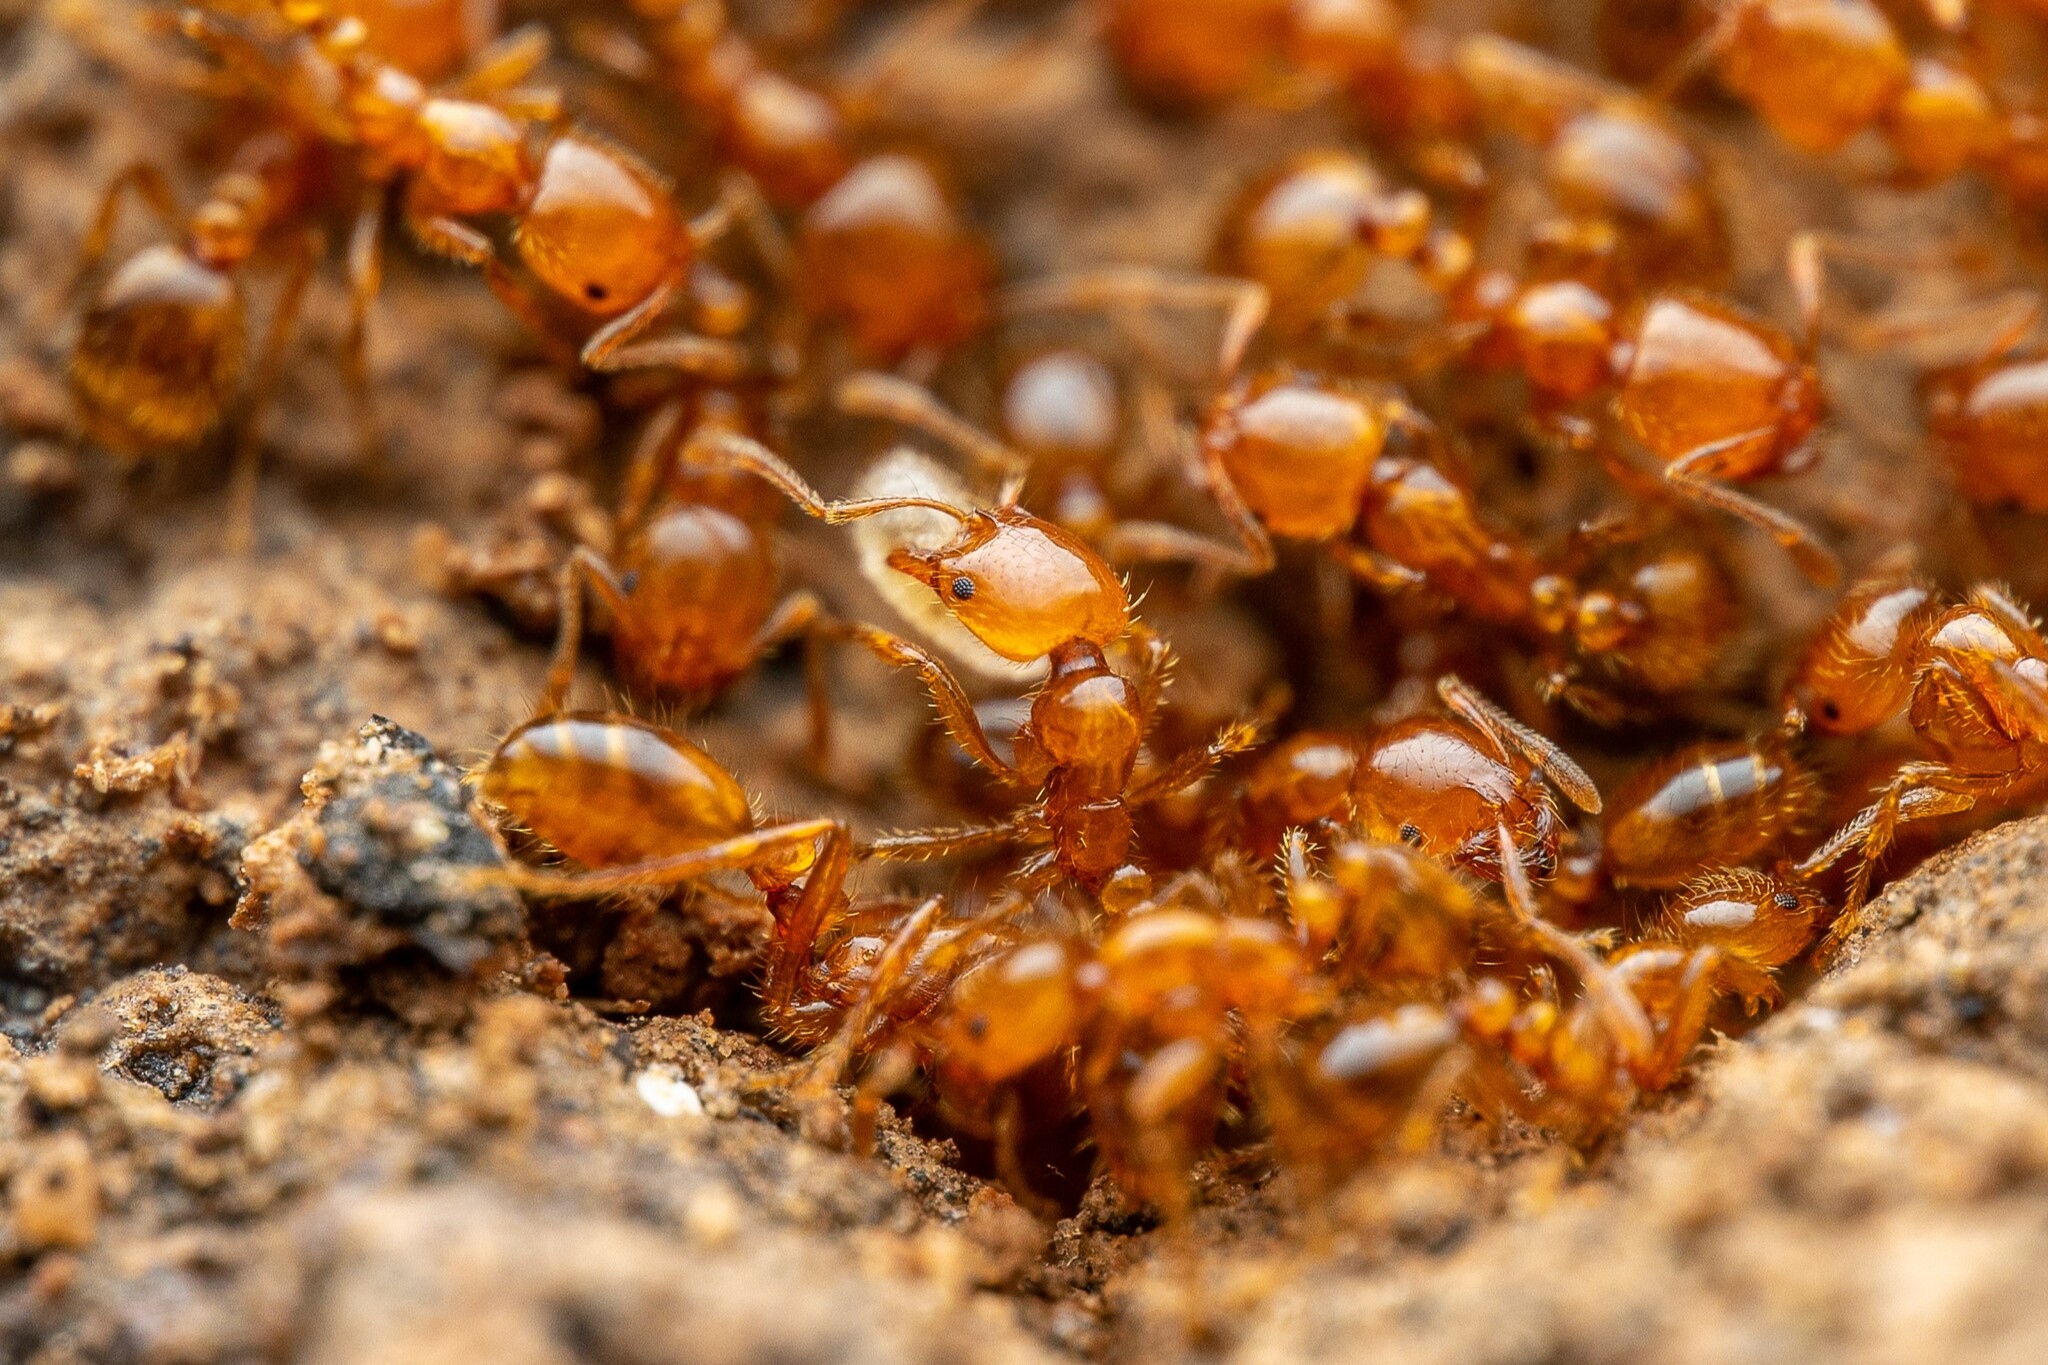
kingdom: Animalia
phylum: Arthropoda
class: Insecta
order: Hymenoptera
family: Formicidae
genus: Solenopsis
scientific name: Solenopsis aurea
